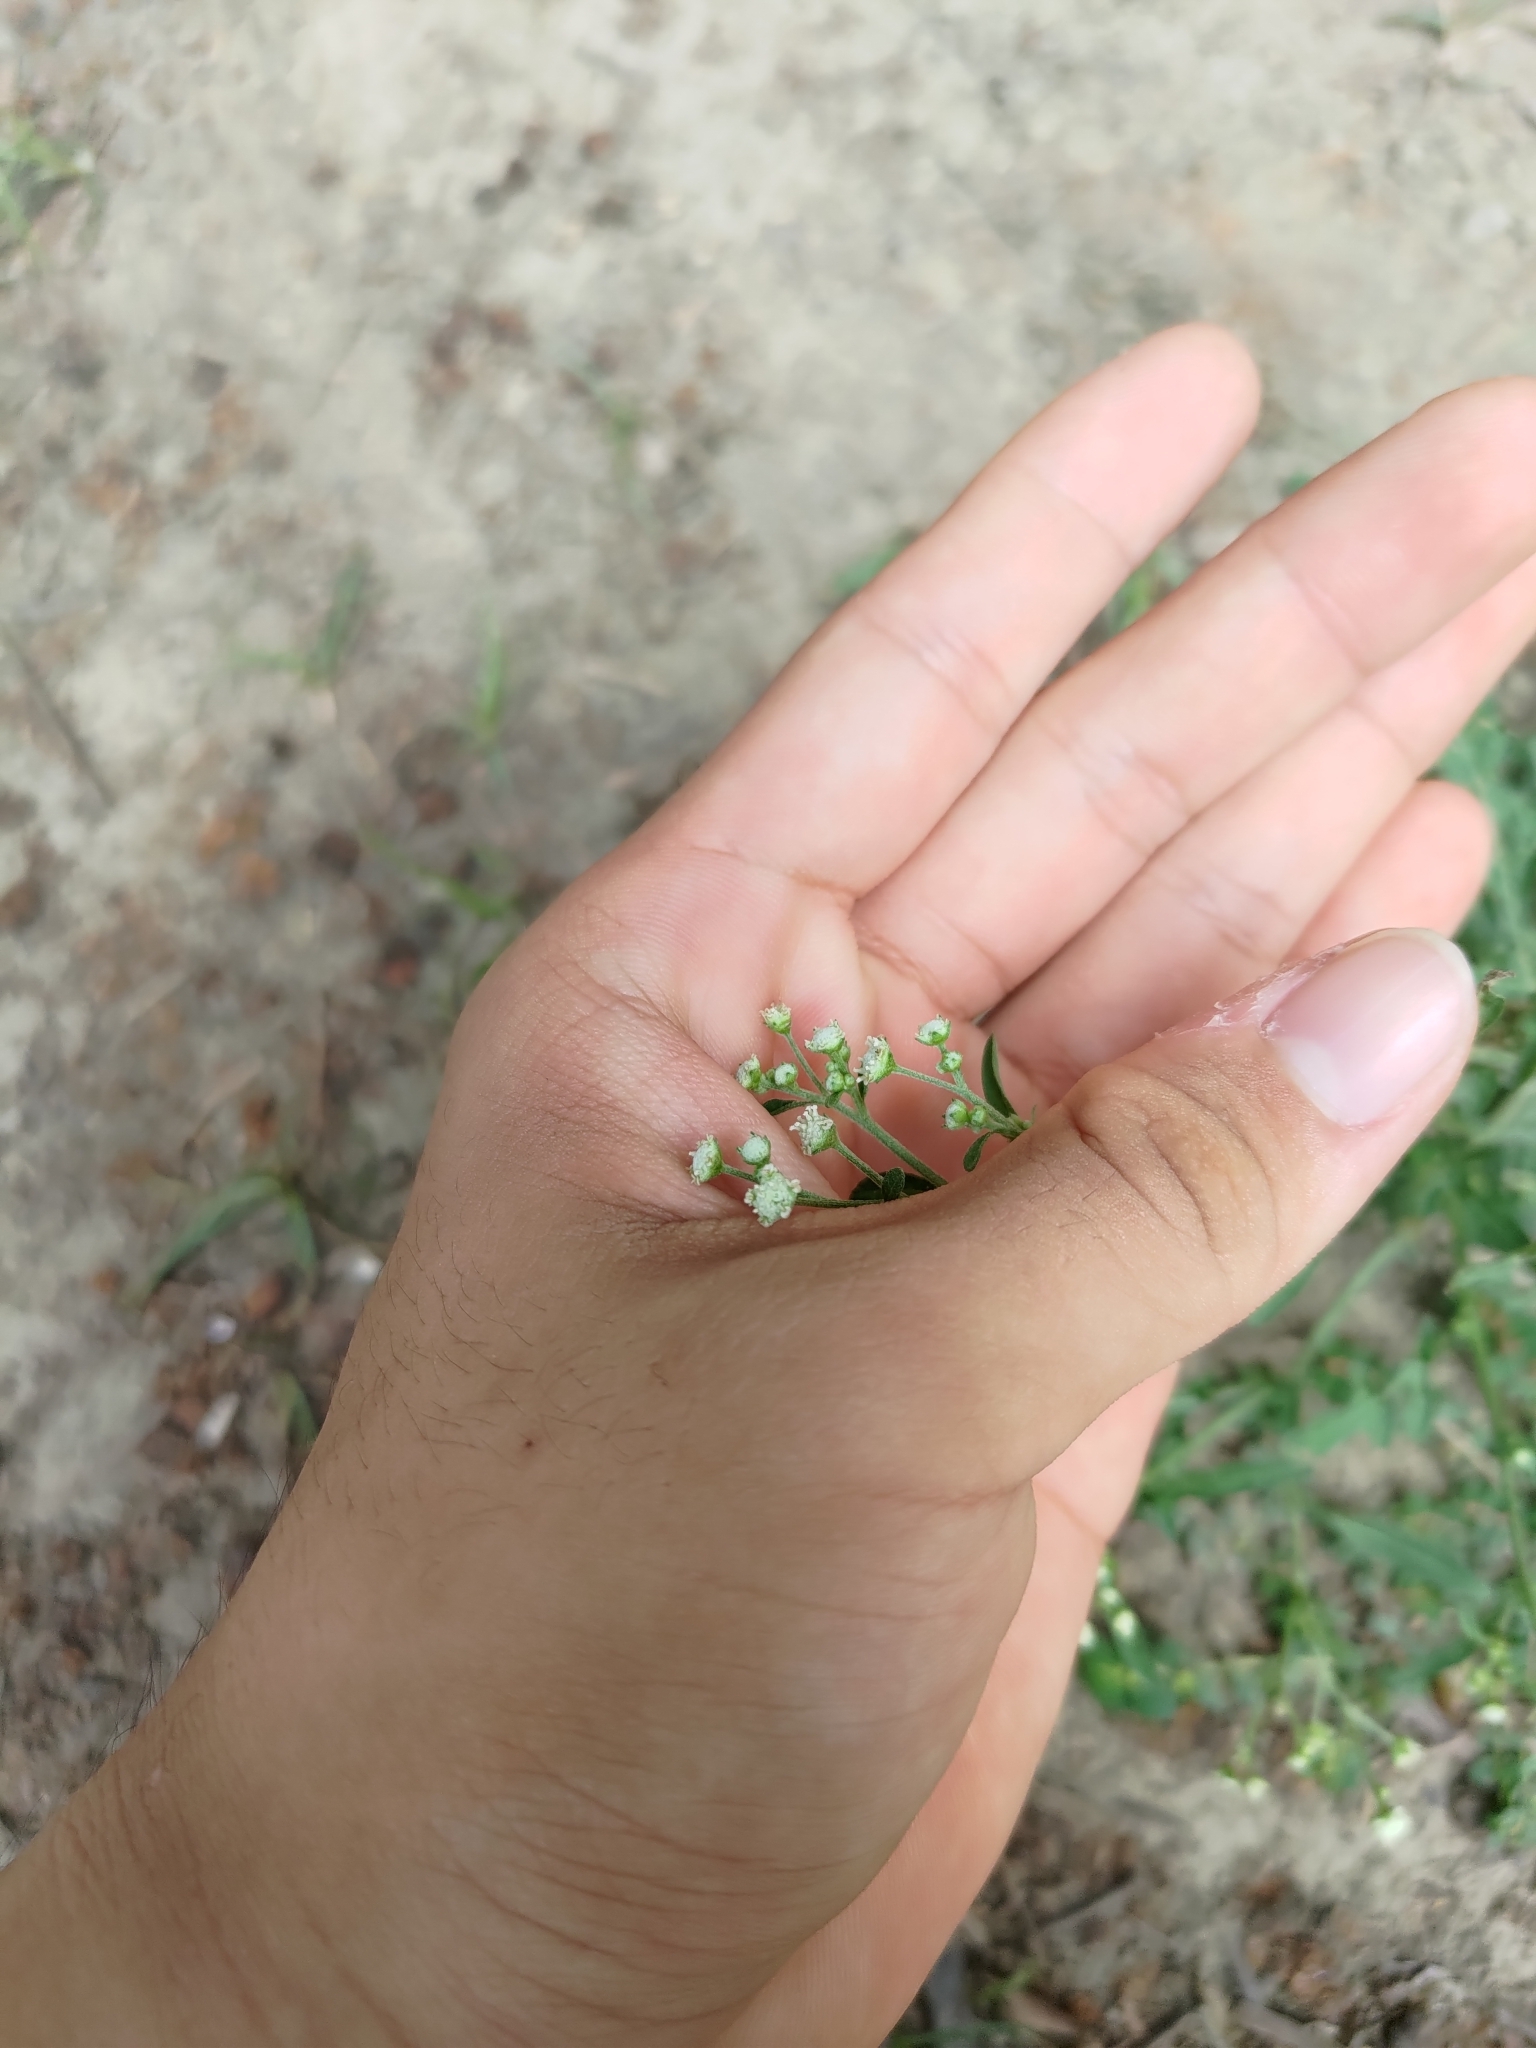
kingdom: Plantae
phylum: Tracheophyta
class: Magnoliopsida
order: Asterales
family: Asteraceae
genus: Parthenium
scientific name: Parthenium hysterophorus
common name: Santa maria feverfew
